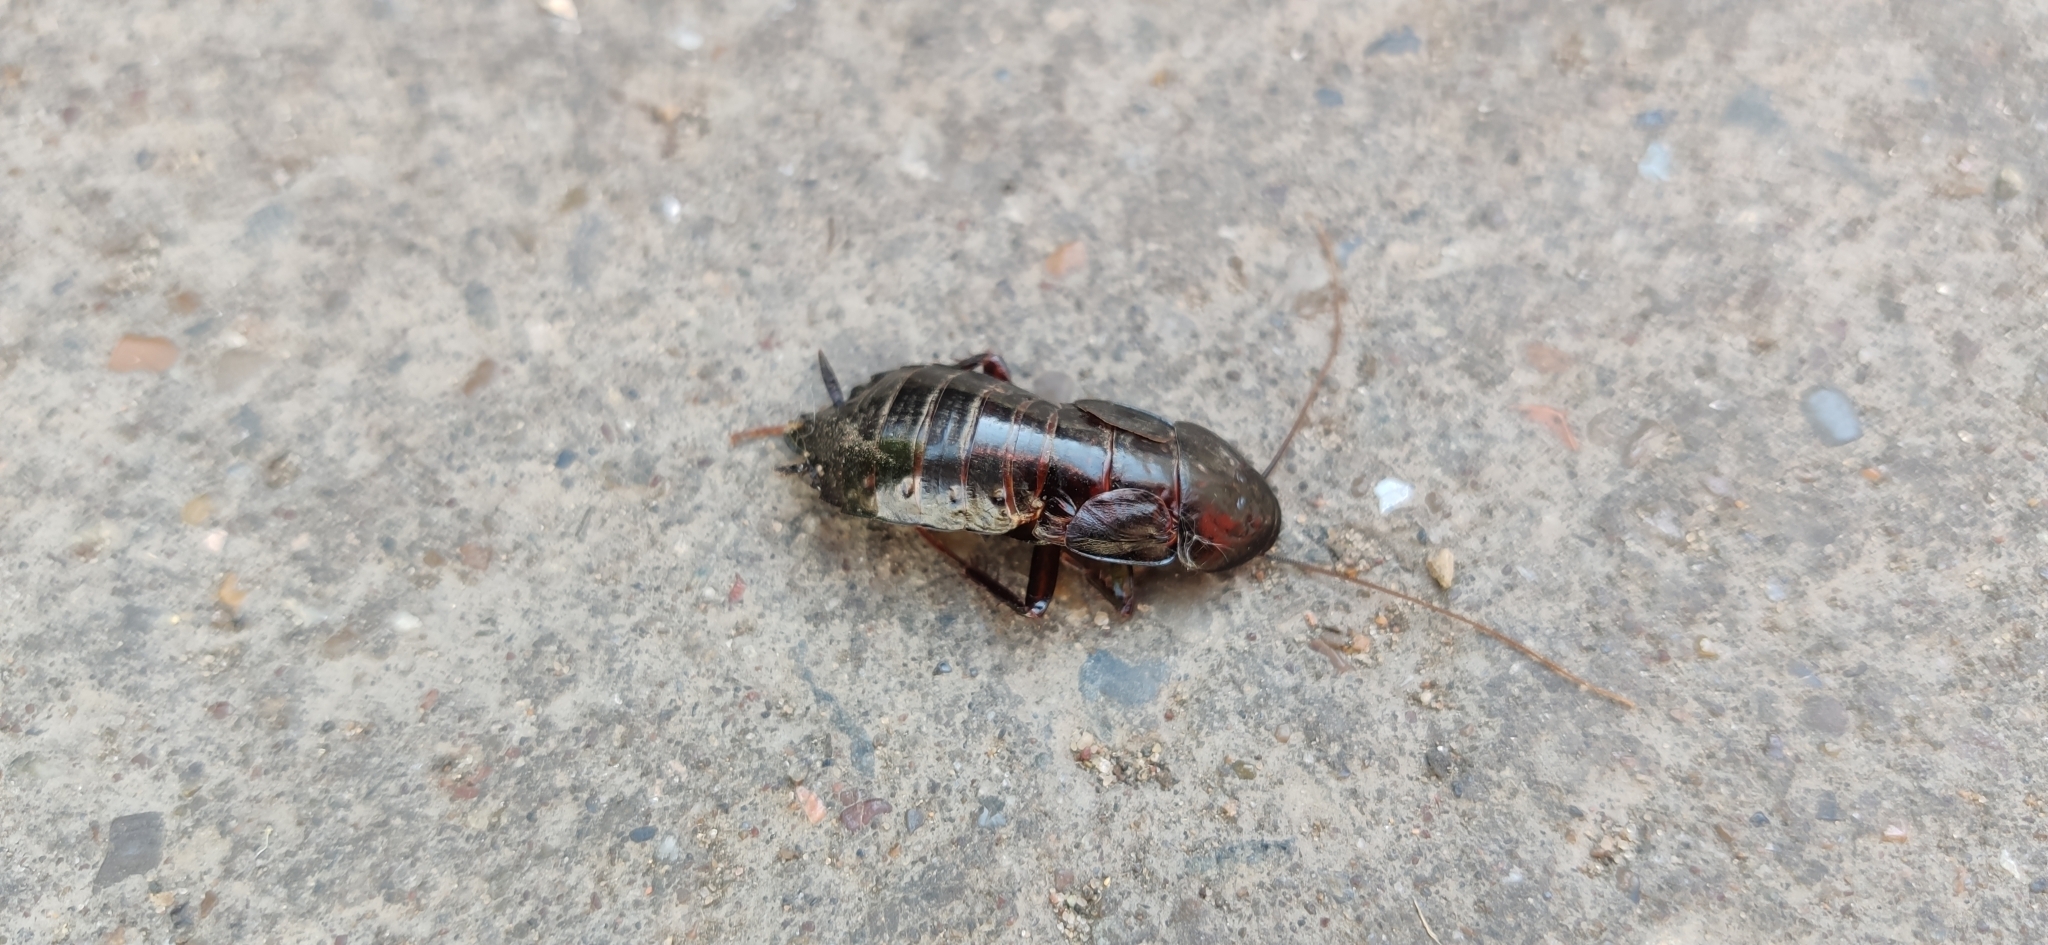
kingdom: Animalia
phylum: Arthropoda
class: Insecta
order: Blattodea
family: Blattidae
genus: Blatta
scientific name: Blatta orientalis
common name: Oriental cockroach
